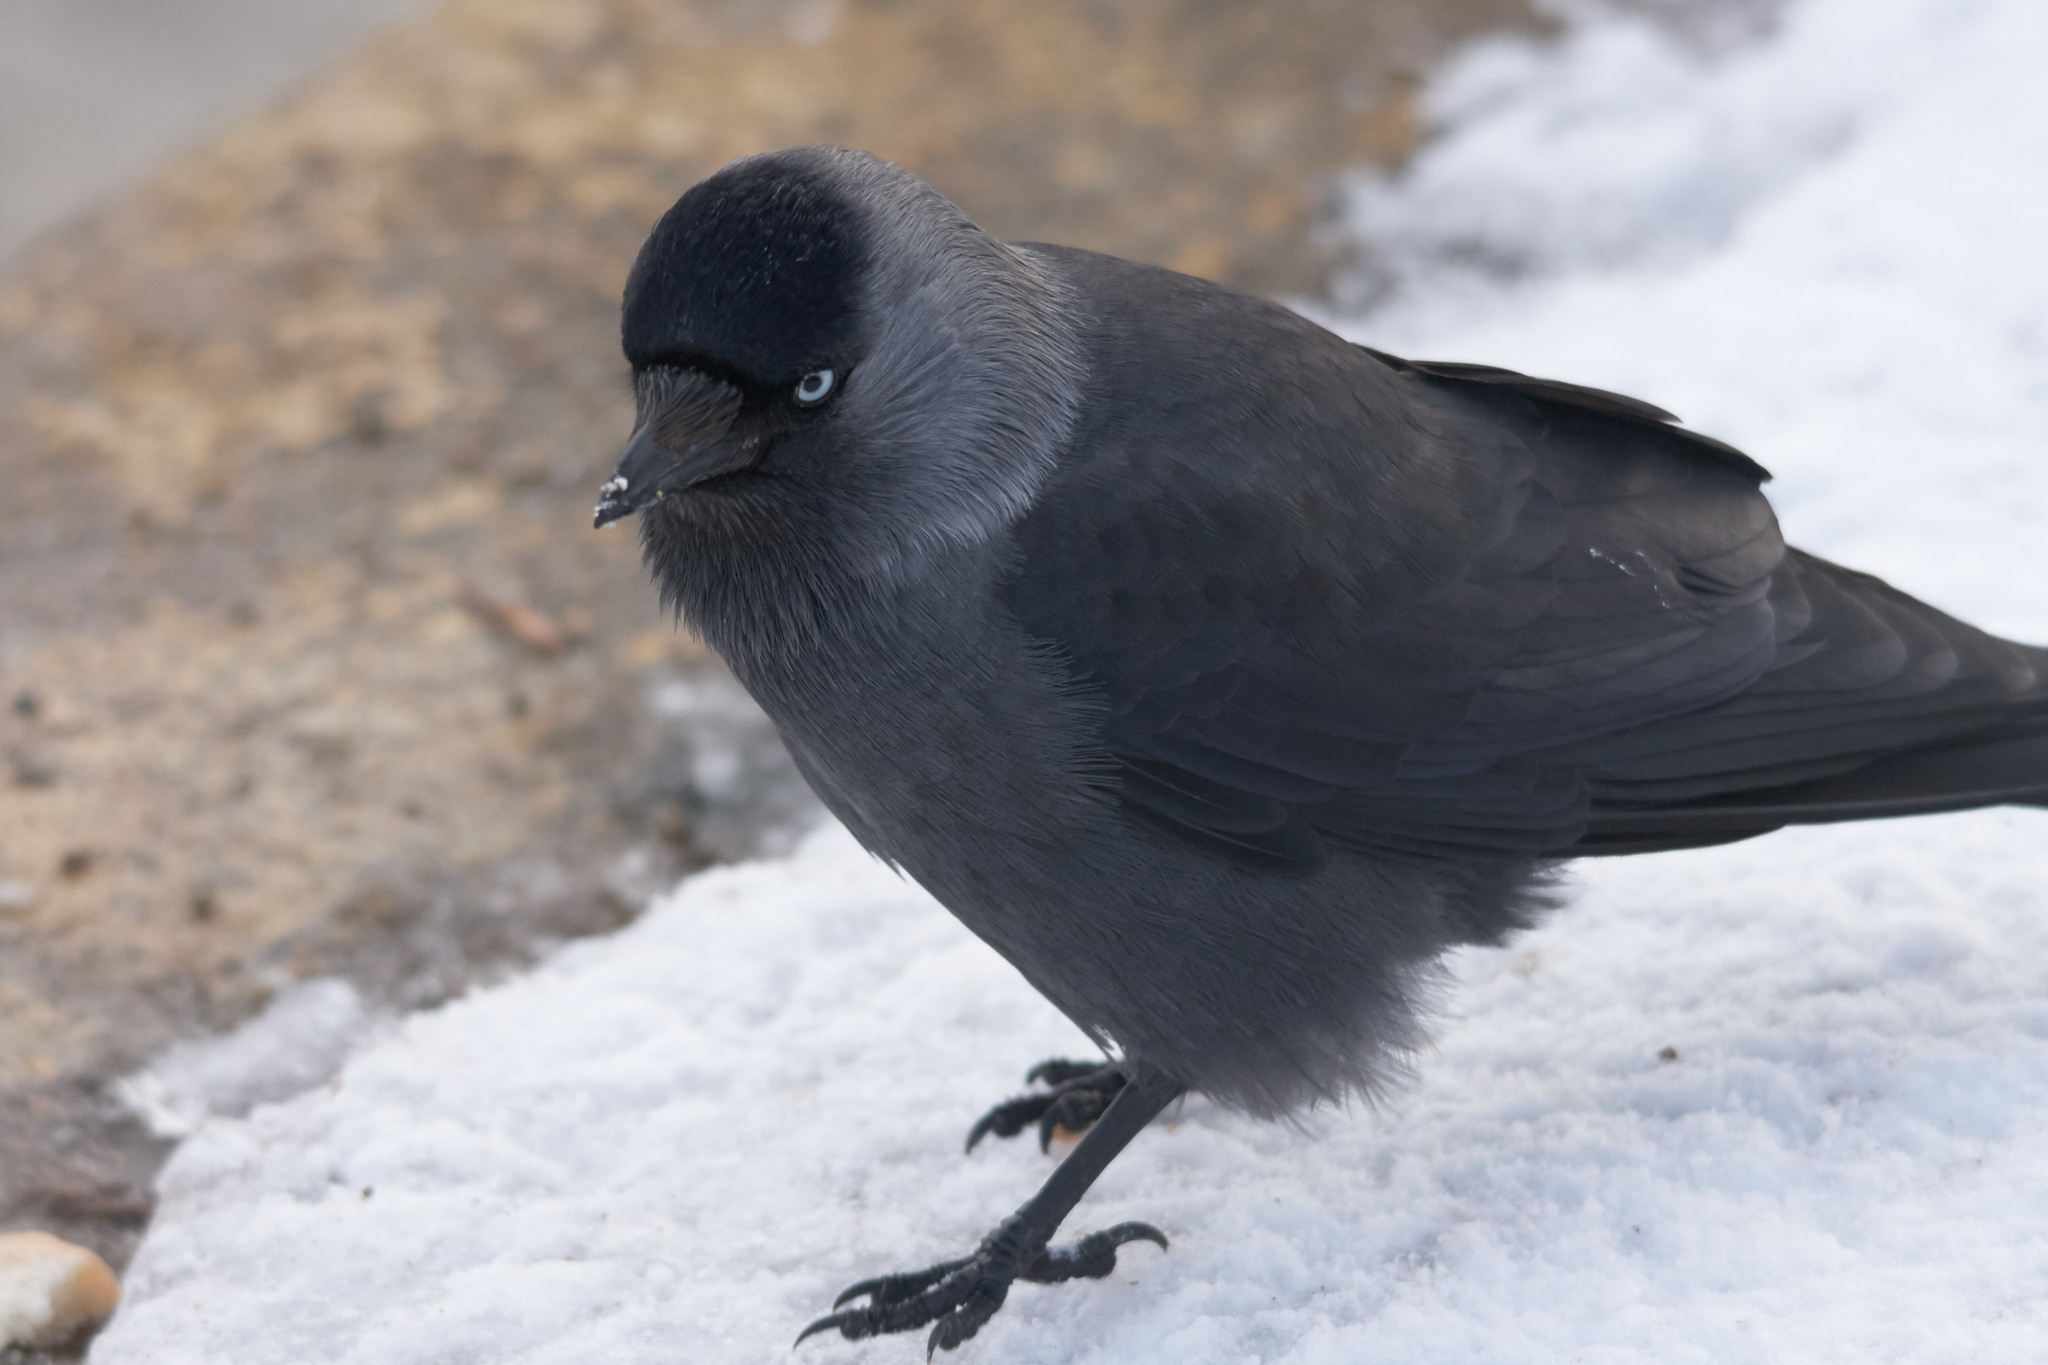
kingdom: Animalia
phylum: Chordata
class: Aves
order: Passeriformes
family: Corvidae
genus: Coloeus
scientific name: Coloeus monedula
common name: Western jackdaw
